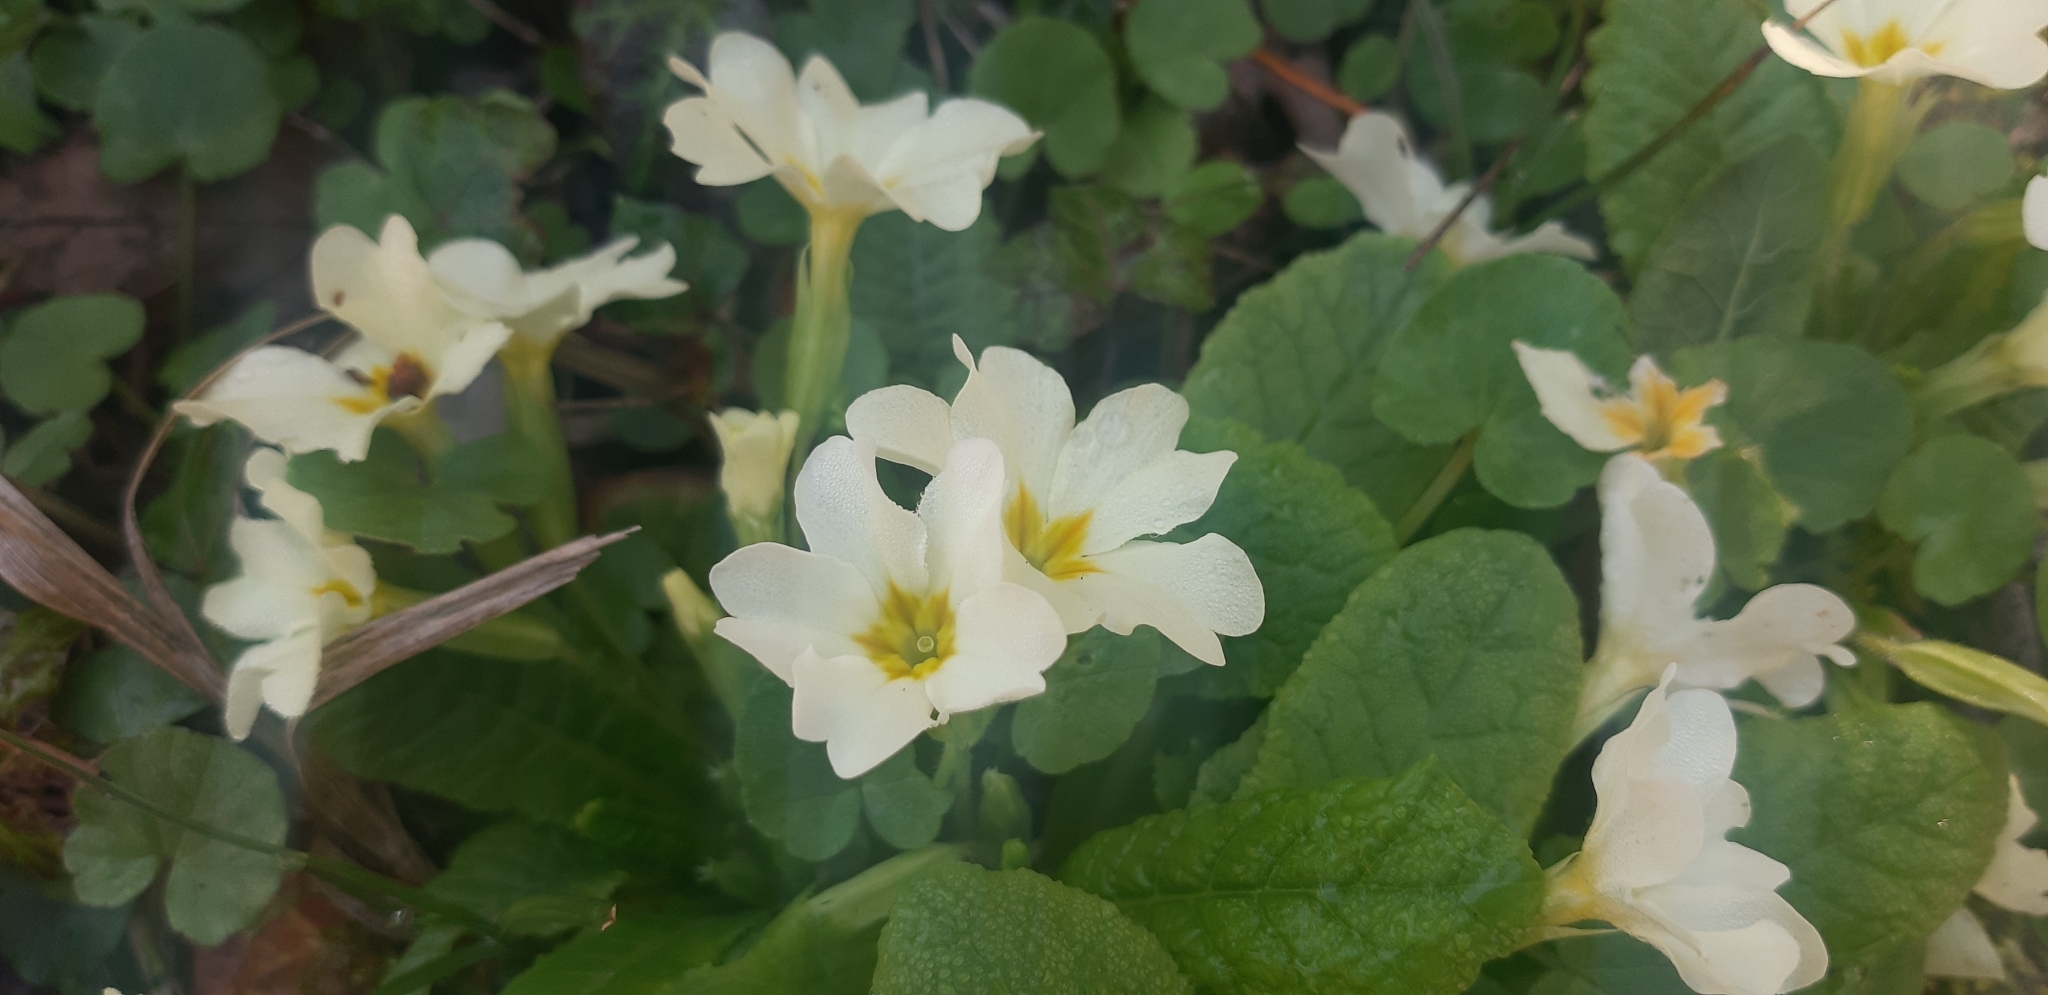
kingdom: Plantae
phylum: Tracheophyta
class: Magnoliopsida
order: Ericales
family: Primulaceae
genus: Primula
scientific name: Primula vulgaris
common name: Primrose
